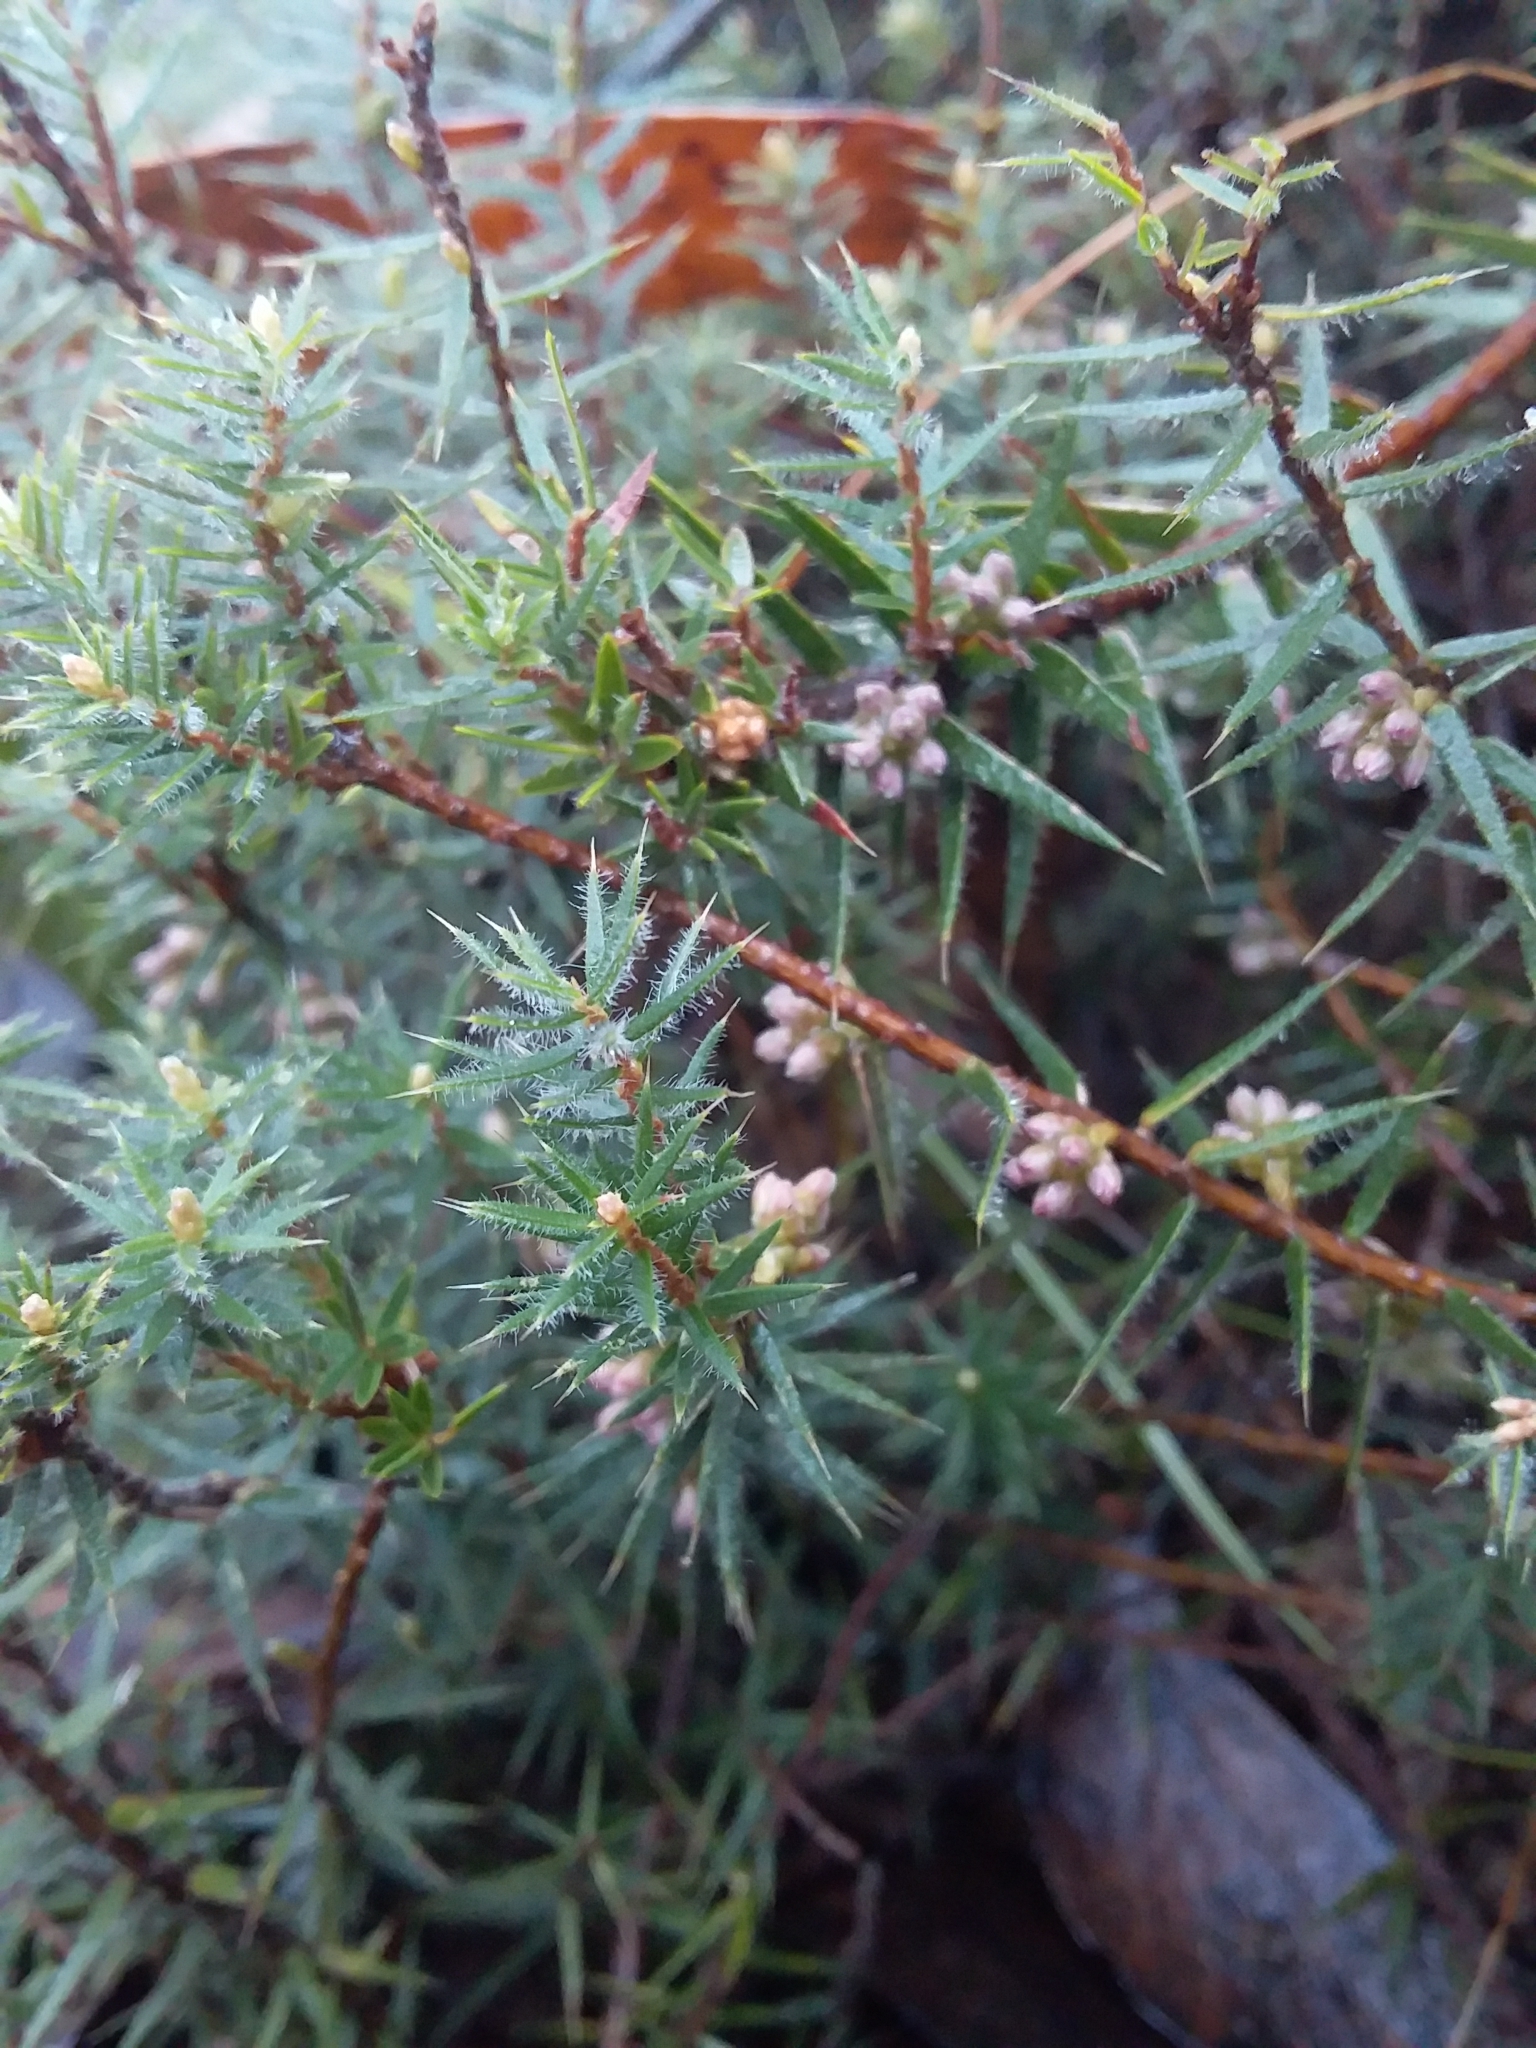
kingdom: Plantae
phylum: Tracheophyta
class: Magnoliopsida
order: Ericales
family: Ericaceae
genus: Acrotriche
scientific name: Acrotriche serrulata
